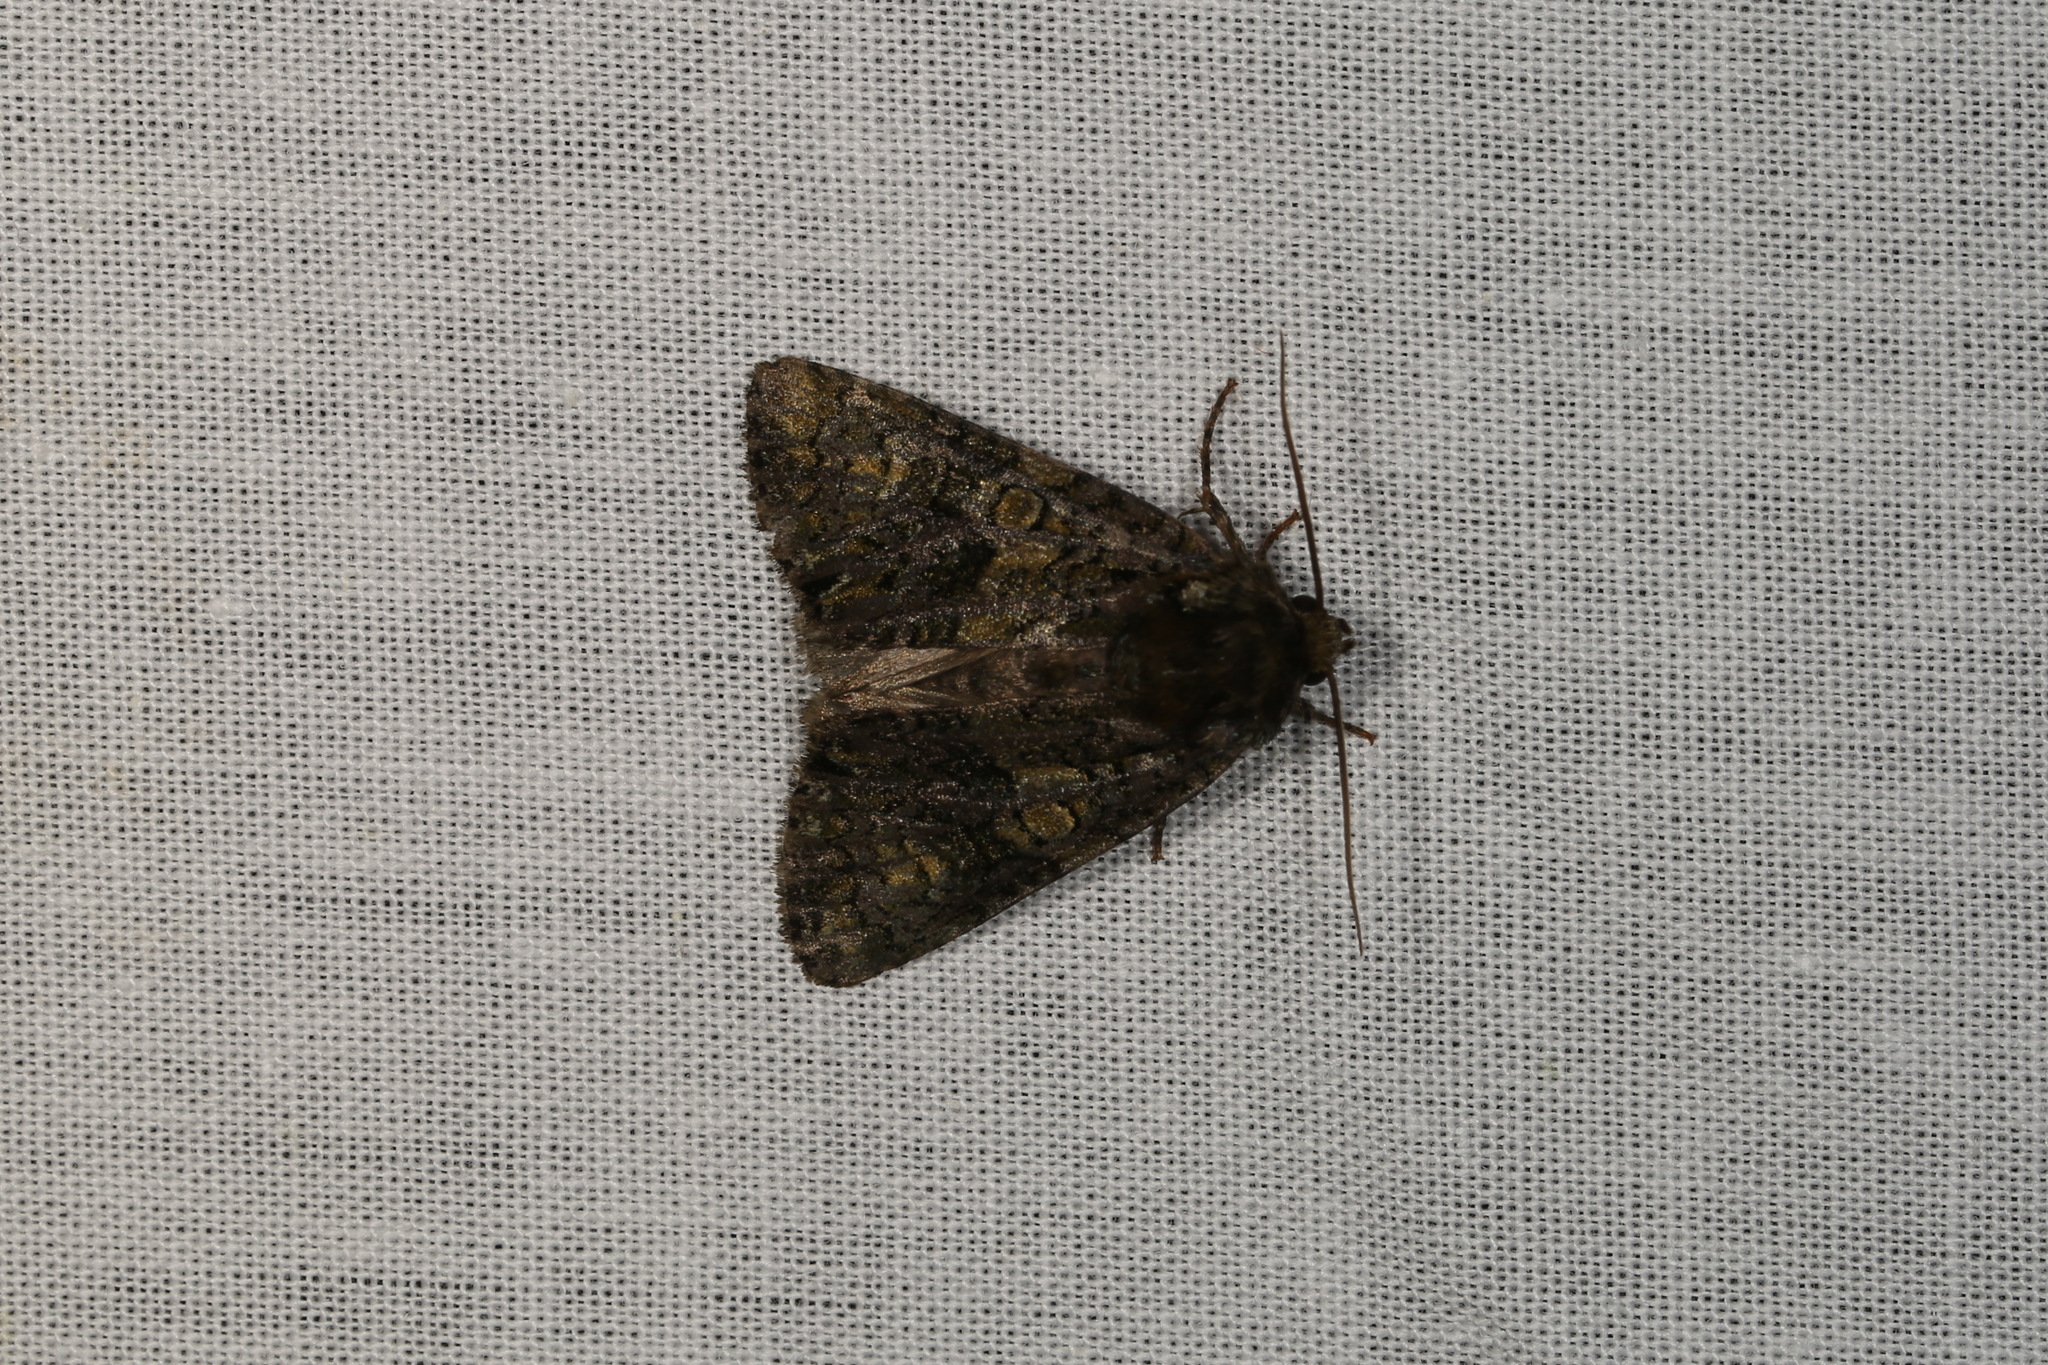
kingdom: Animalia
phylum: Arthropoda
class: Insecta
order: Lepidoptera
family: Noctuidae
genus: Craniophora
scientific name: Craniophora ligustri
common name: Coronet
